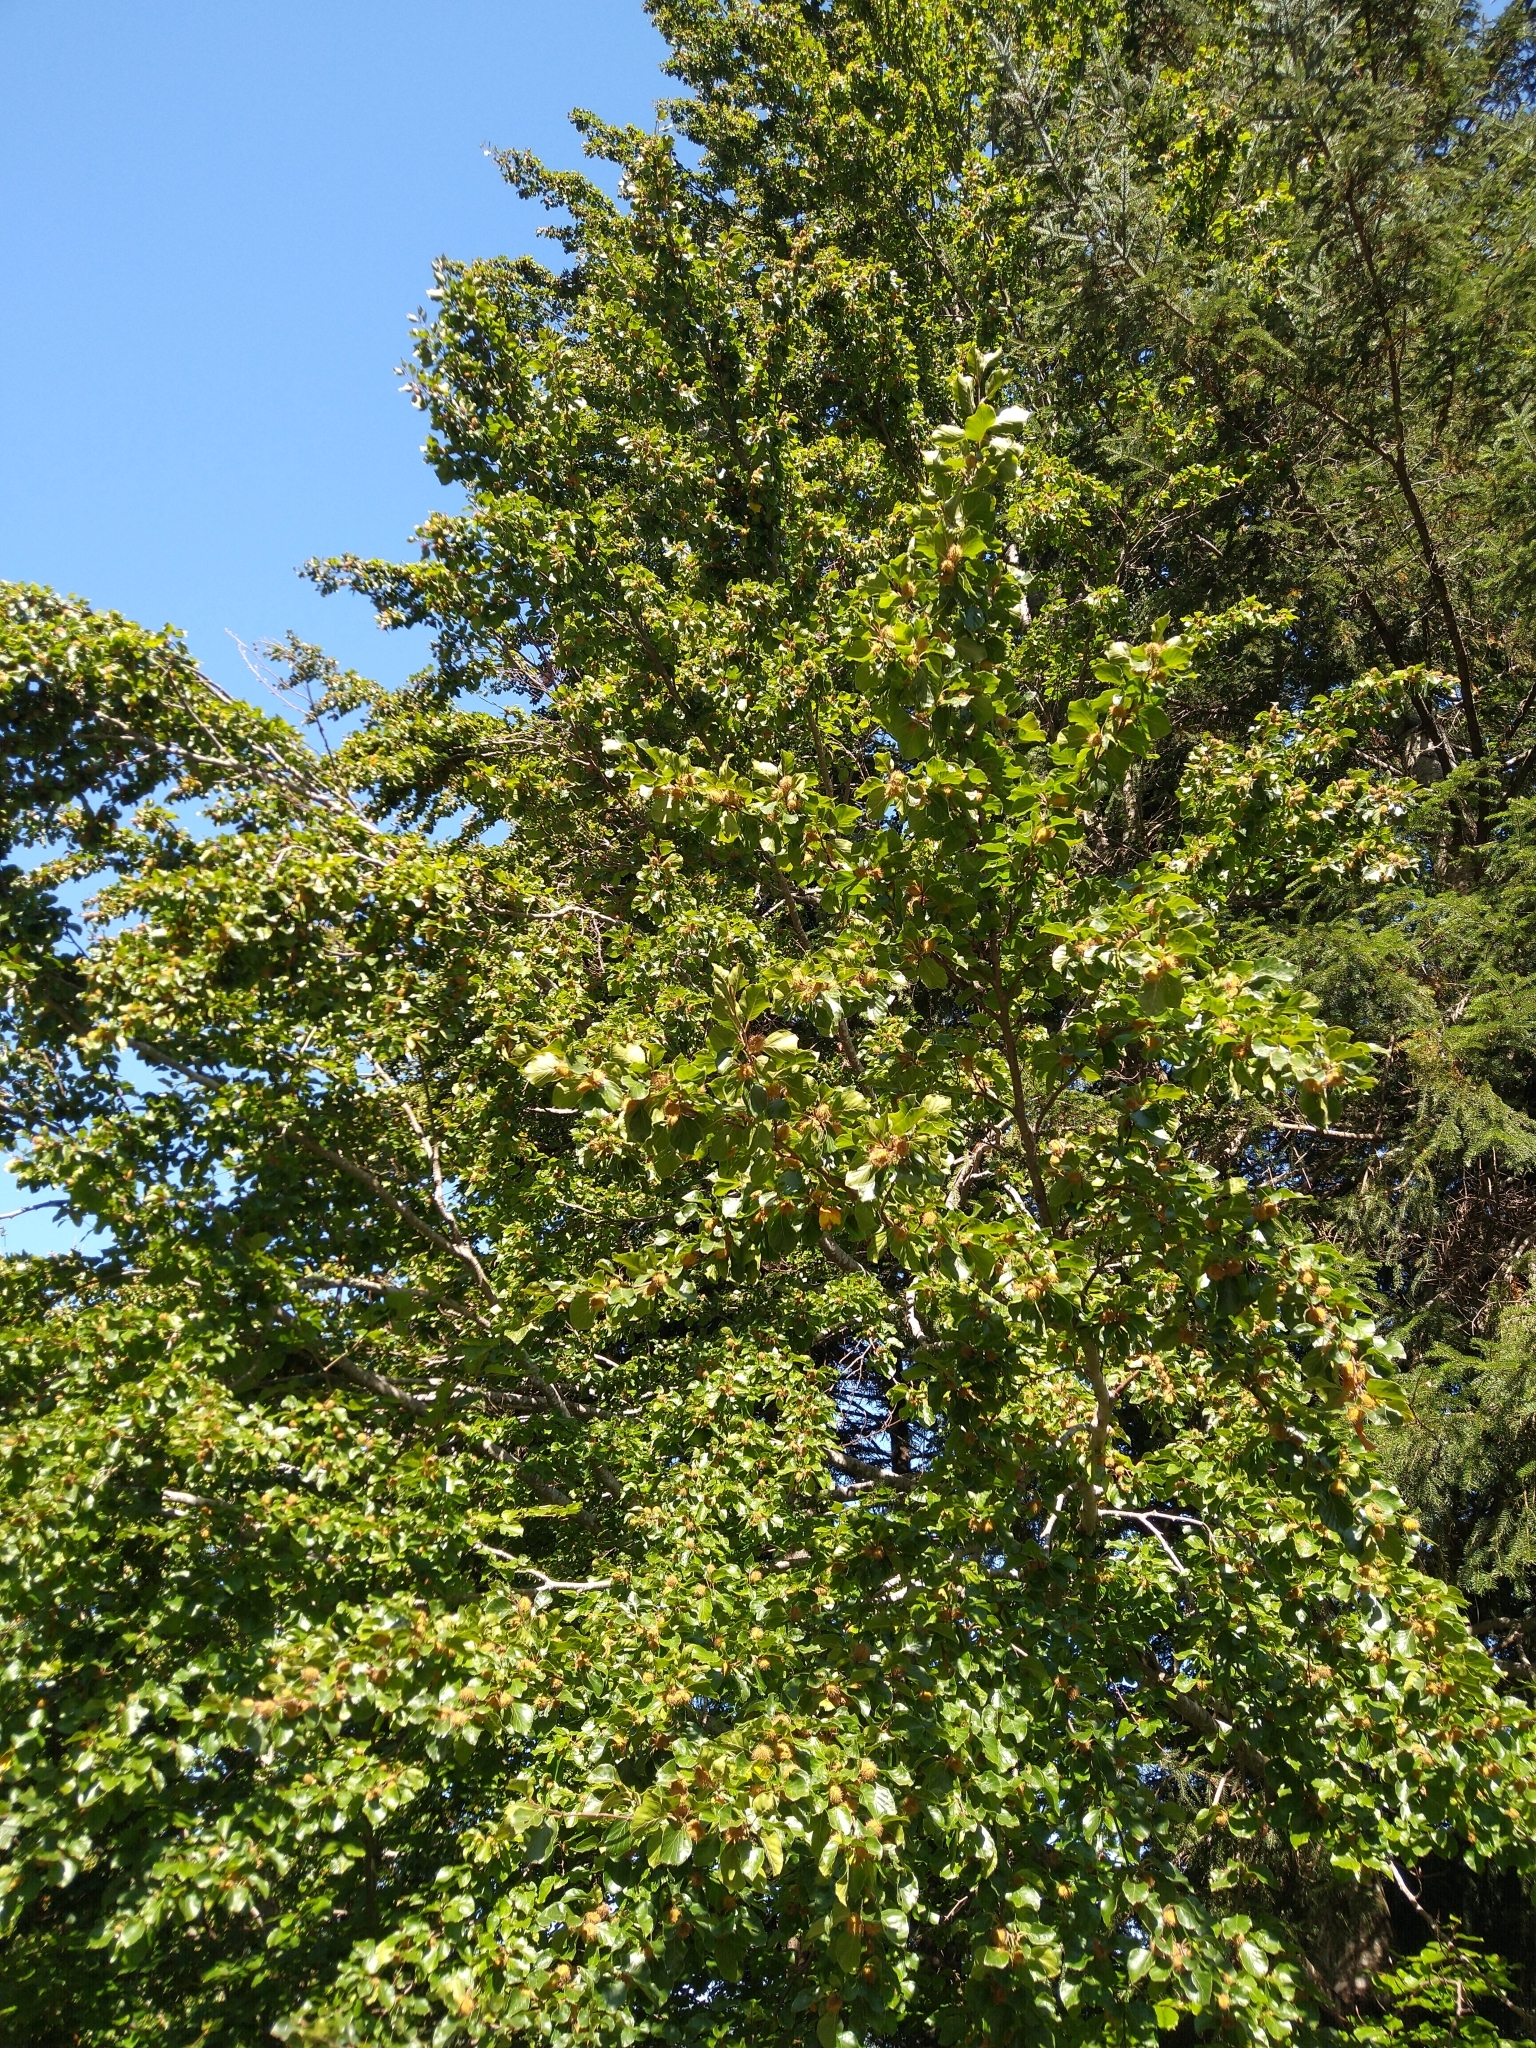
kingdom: Plantae
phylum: Tracheophyta
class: Magnoliopsida
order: Fagales
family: Fagaceae
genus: Fagus
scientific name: Fagus sylvatica
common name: Beech
